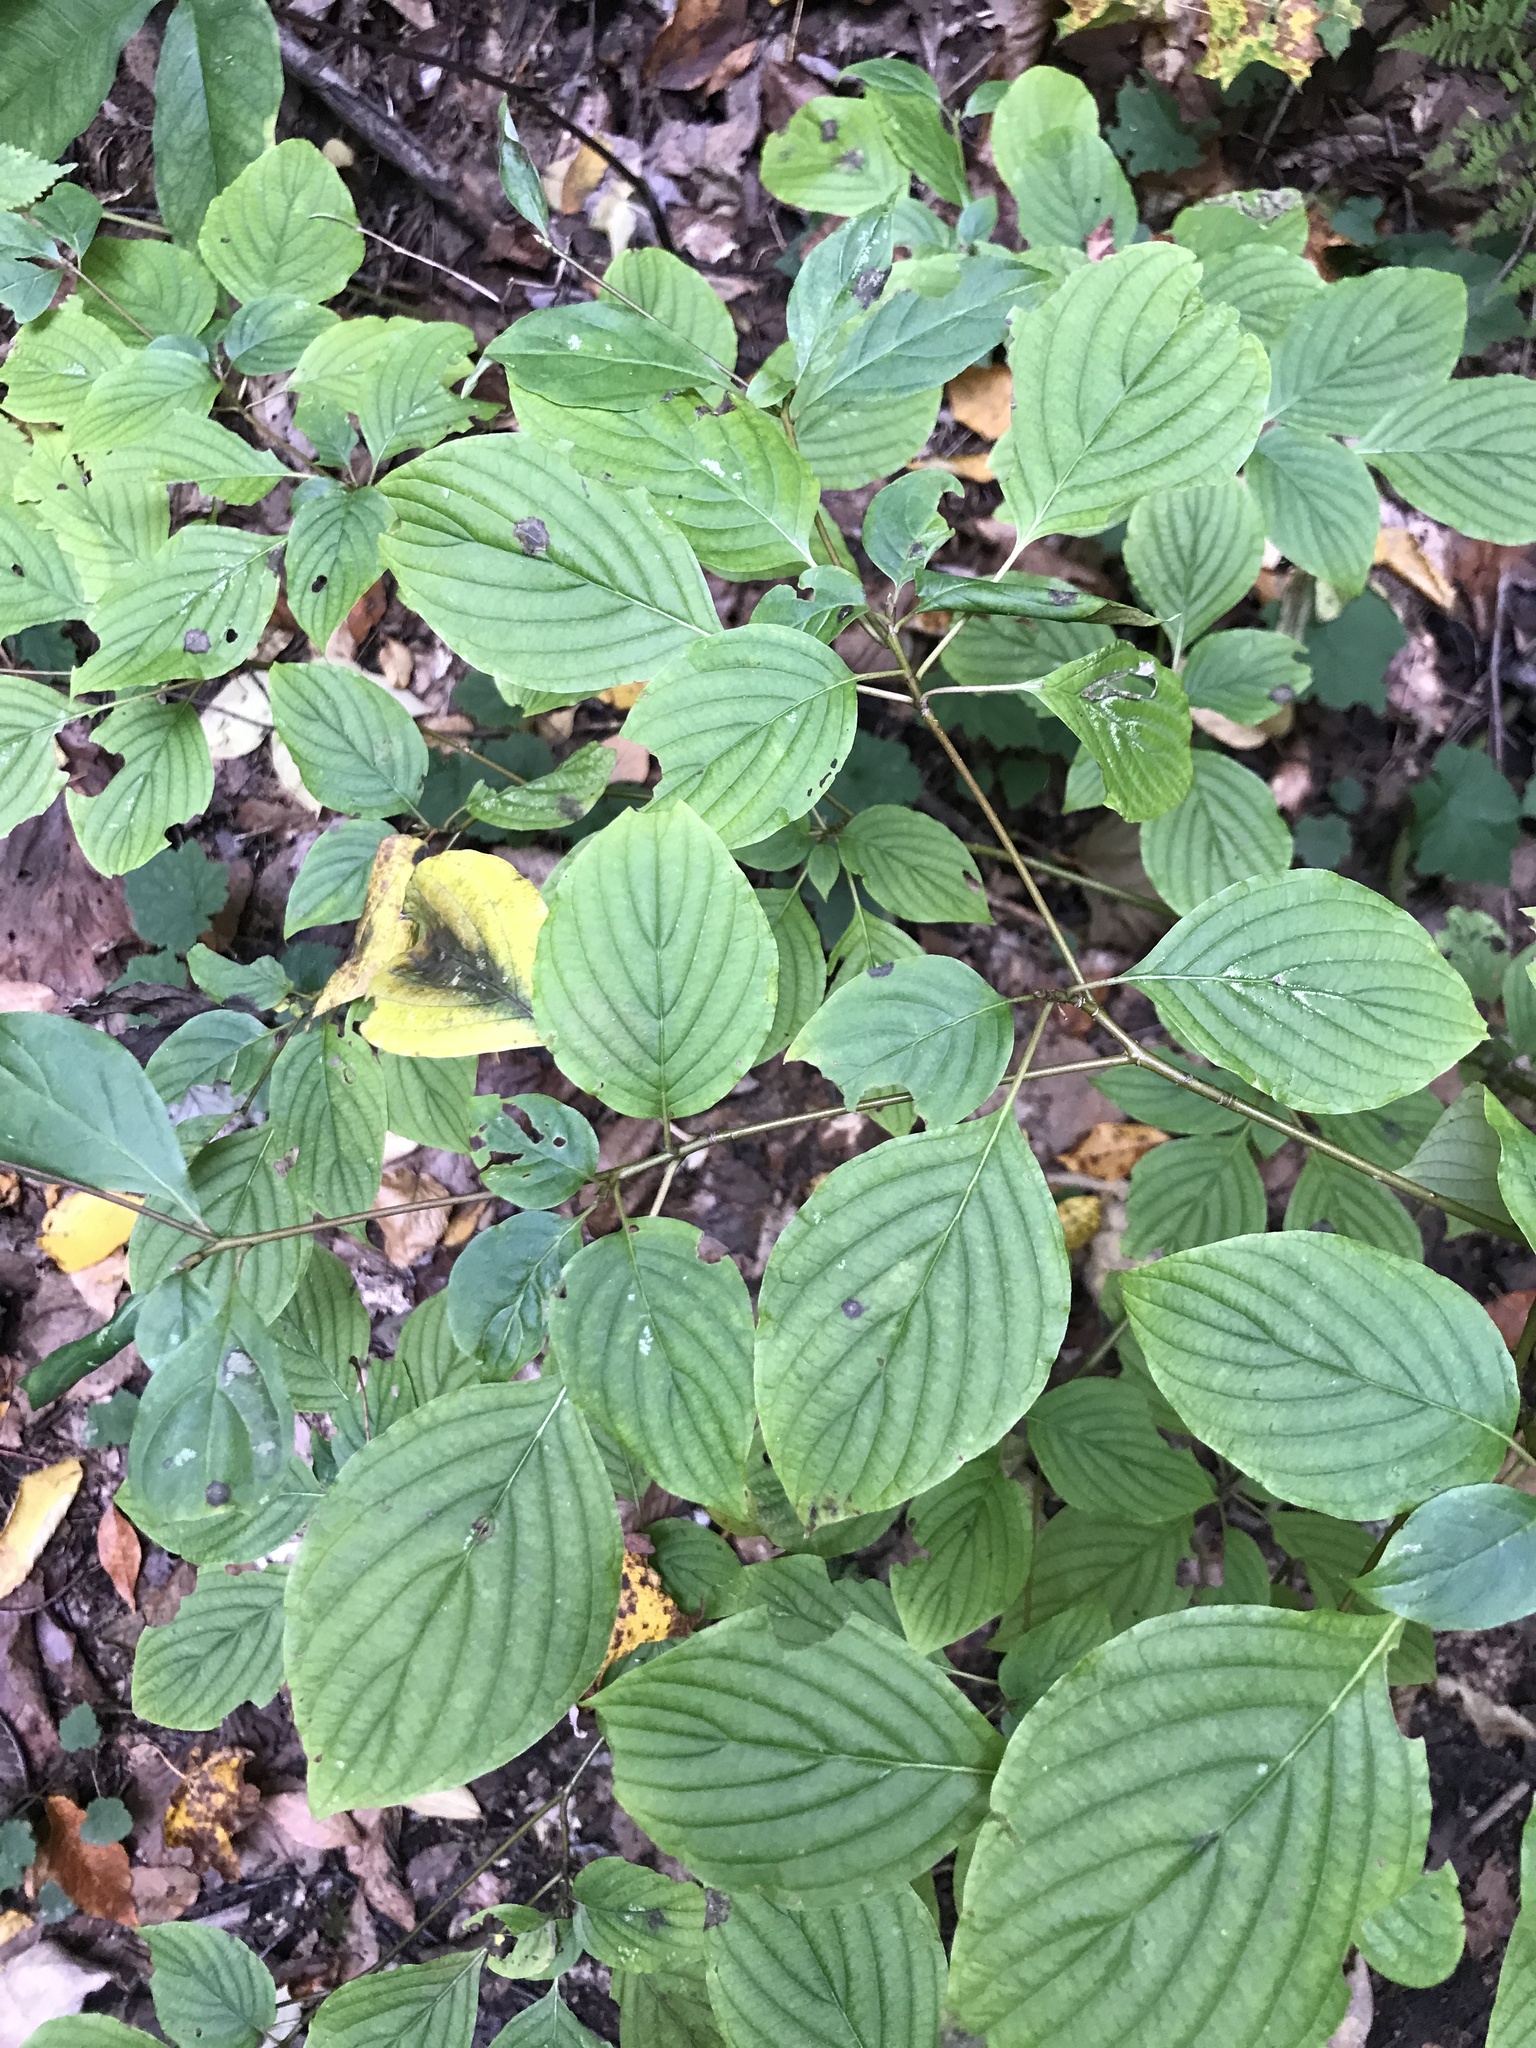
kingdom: Plantae
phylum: Tracheophyta
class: Magnoliopsida
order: Cornales
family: Cornaceae
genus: Cornus
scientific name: Cornus alternifolia
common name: Pagoda dogwood
